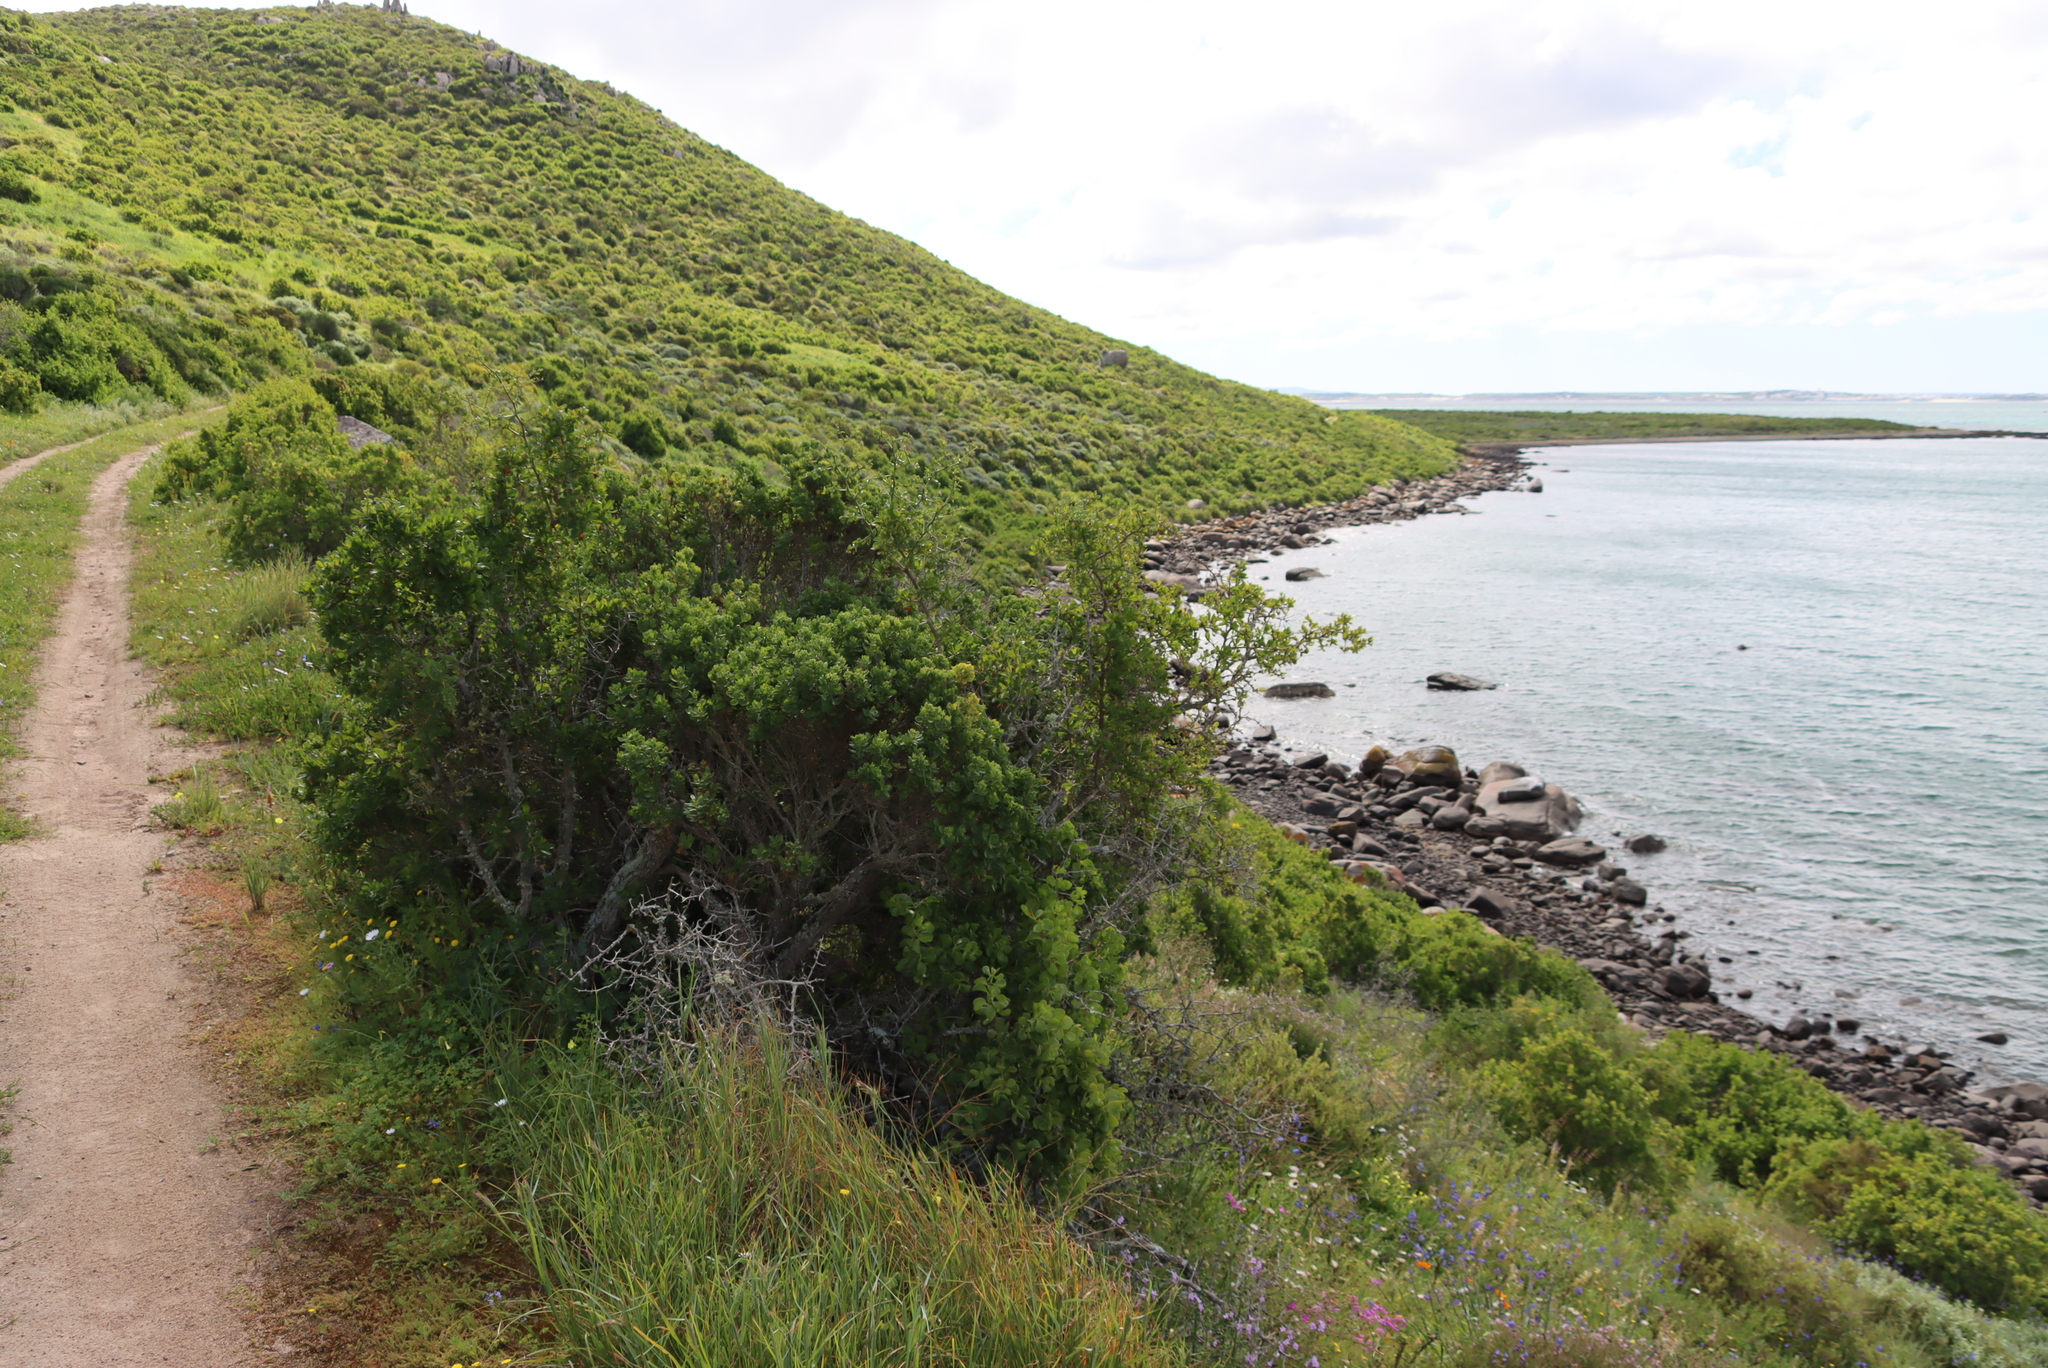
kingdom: Plantae
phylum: Tracheophyta
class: Magnoliopsida
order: Asterales
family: Asteraceae
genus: Pteronia
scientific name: Pteronia divaricata
